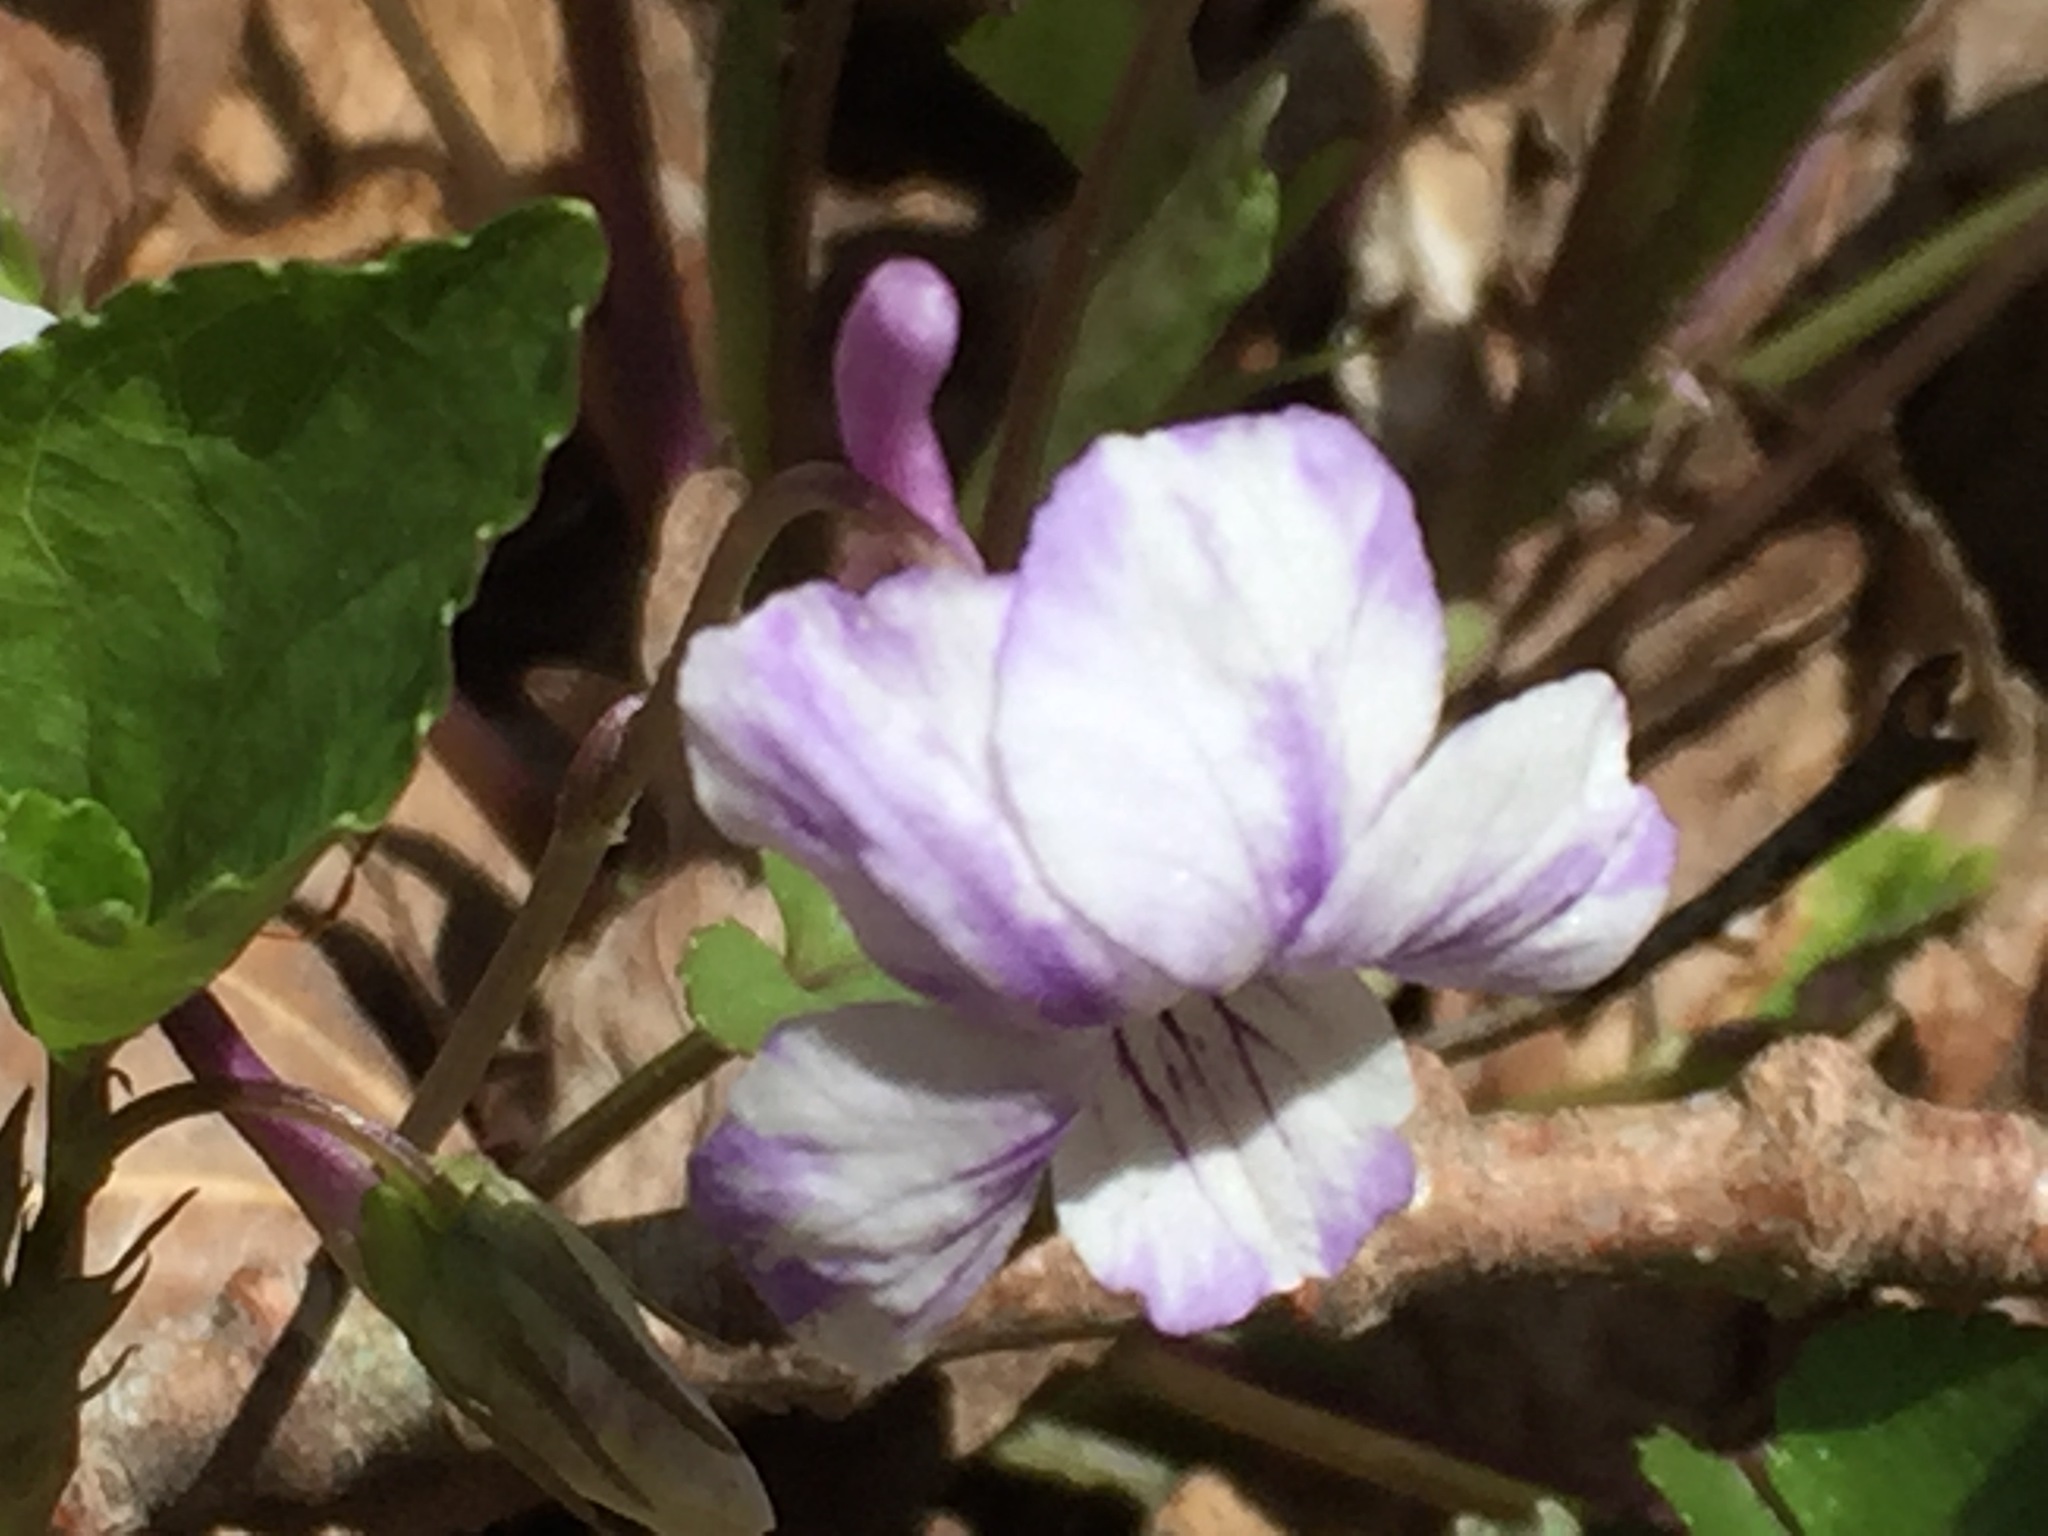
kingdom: Plantae
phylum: Tracheophyta
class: Magnoliopsida
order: Malpighiales
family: Violaceae
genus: Viola
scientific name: Viola rostrata
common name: Long-spur violet
